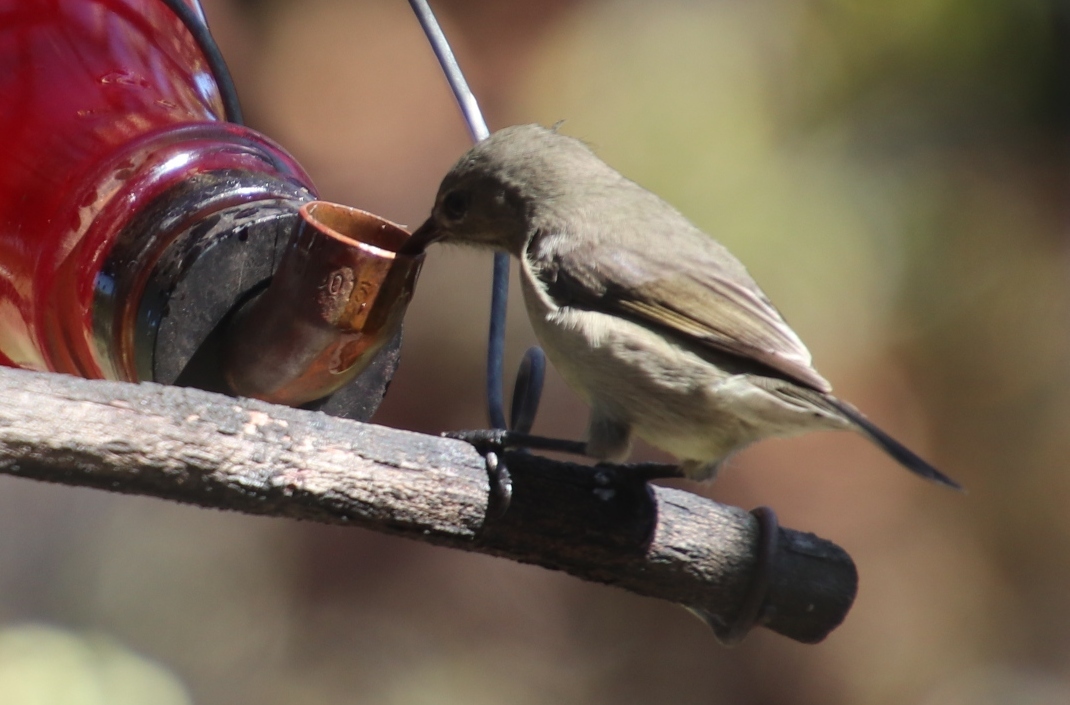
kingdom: Animalia
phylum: Chordata
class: Aves
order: Passeriformes
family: Nectariniidae
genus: Cinnyris
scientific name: Cinnyris chalybeus
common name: Southern double-collared sunbird
